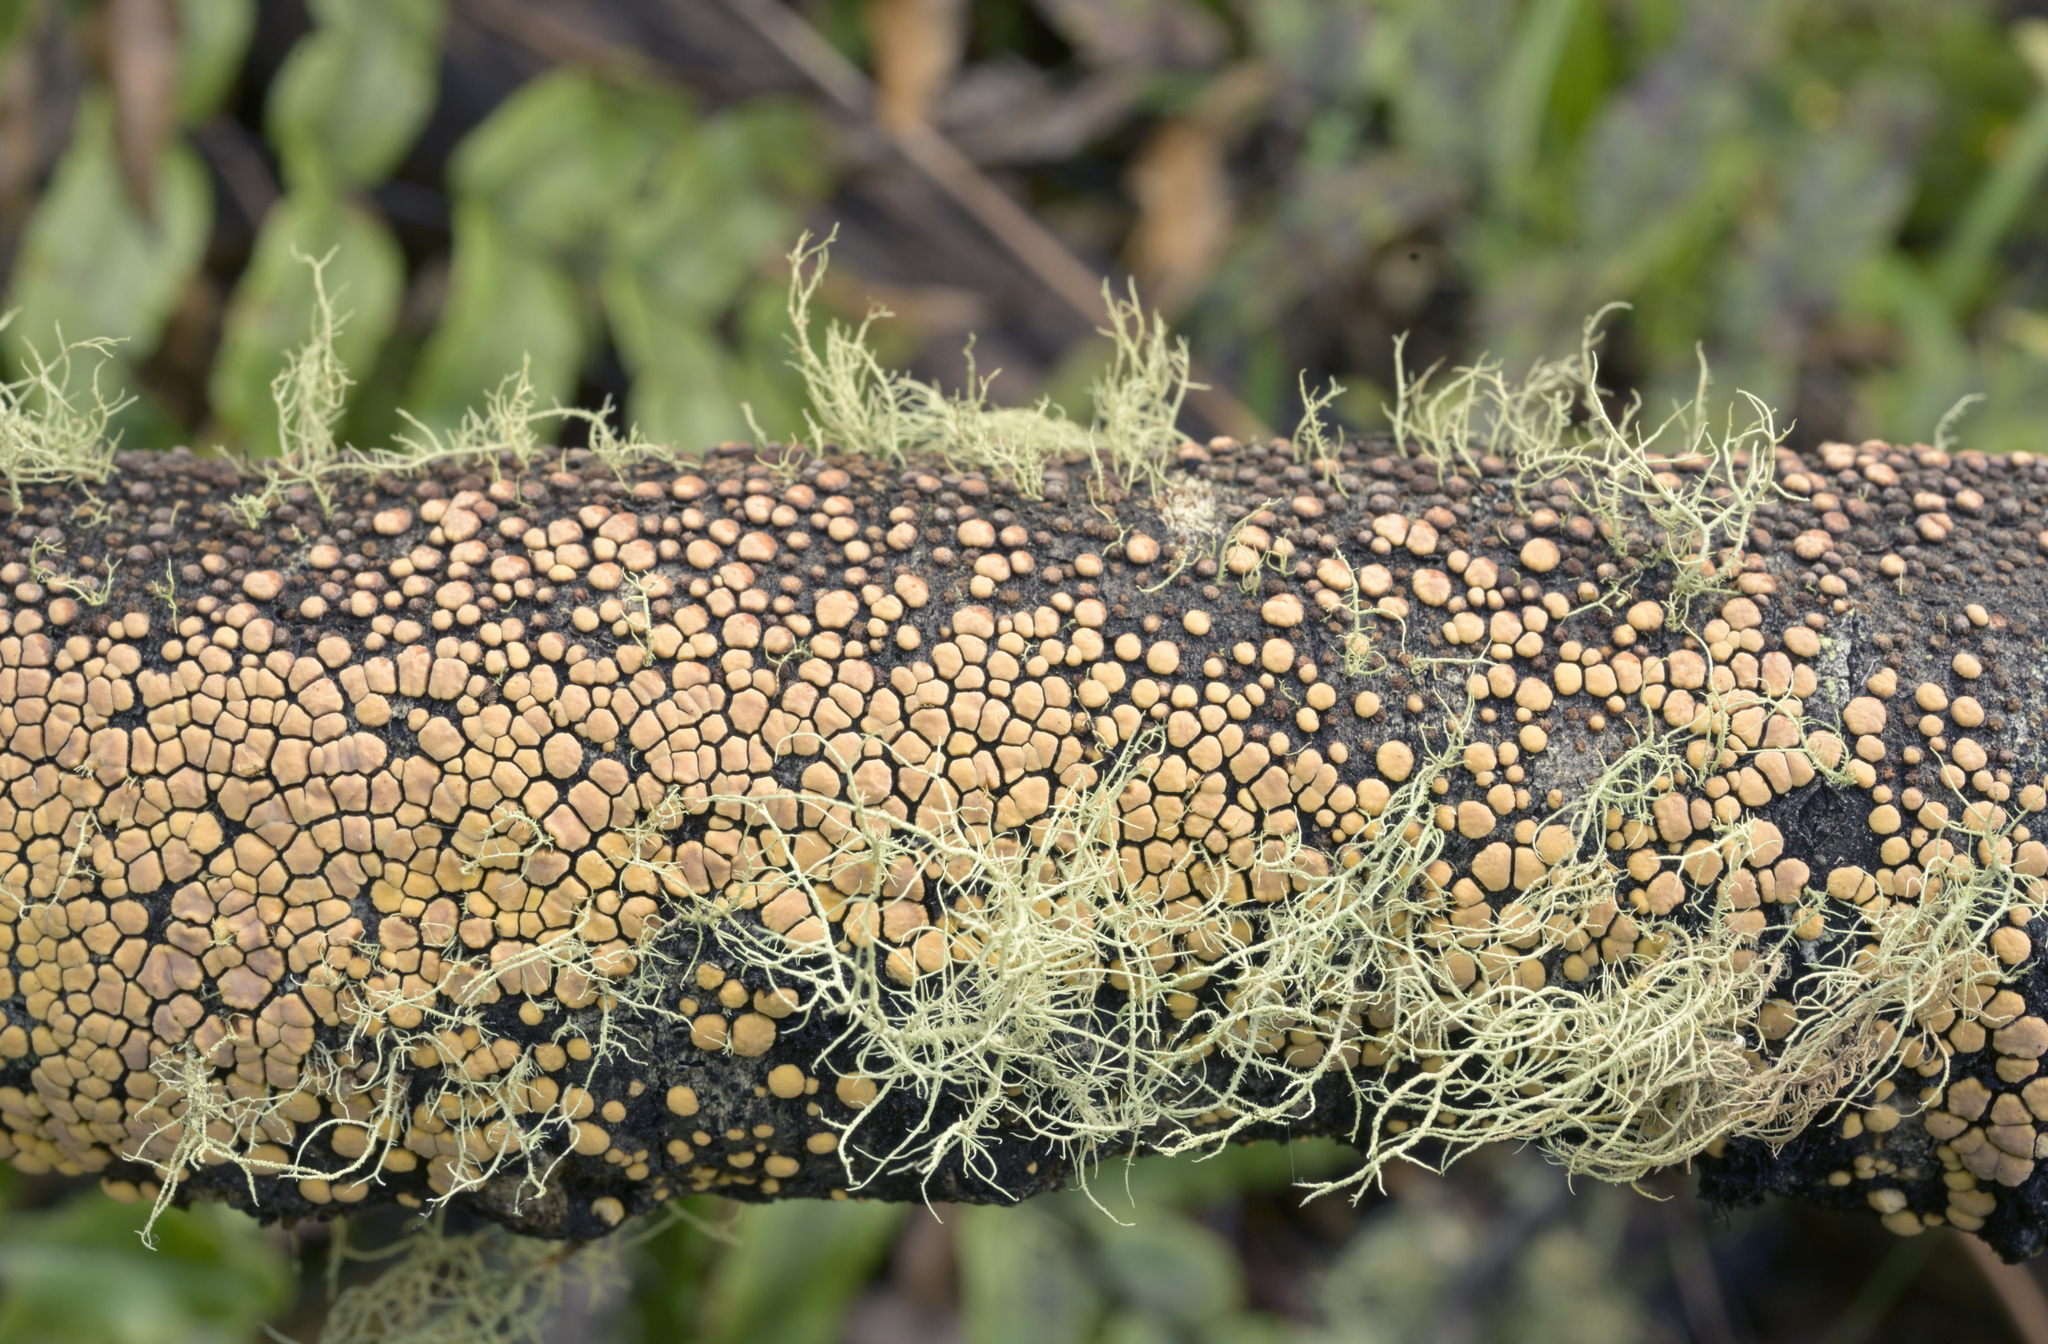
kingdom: Fungi
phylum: Basidiomycota
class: Agaricomycetes
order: Russulales
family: Stereaceae
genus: Aleurodiscus
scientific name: Aleurodiscus berggrenii
